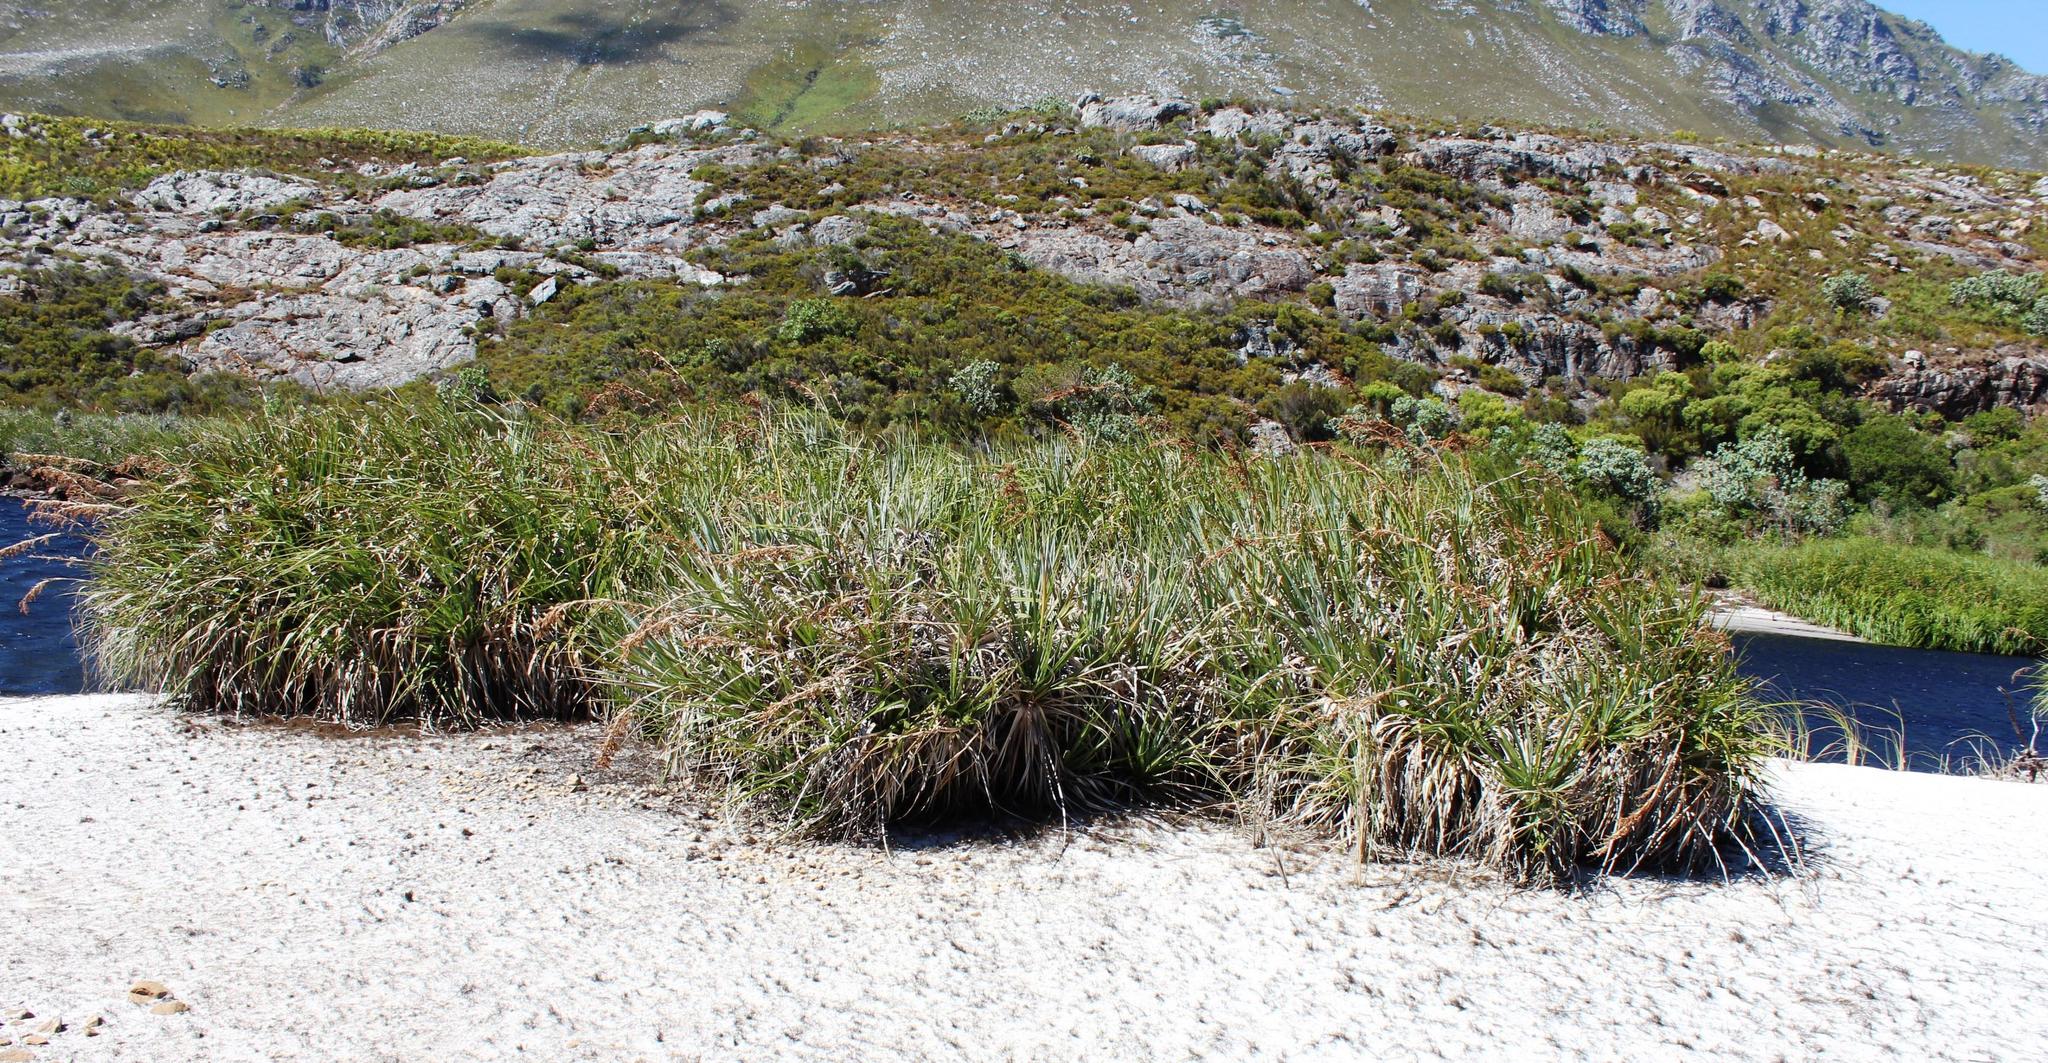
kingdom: Plantae
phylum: Tracheophyta
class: Liliopsida
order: Poales
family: Thurniaceae
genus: Prionium
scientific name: Prionium serratum
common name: Palmiet
